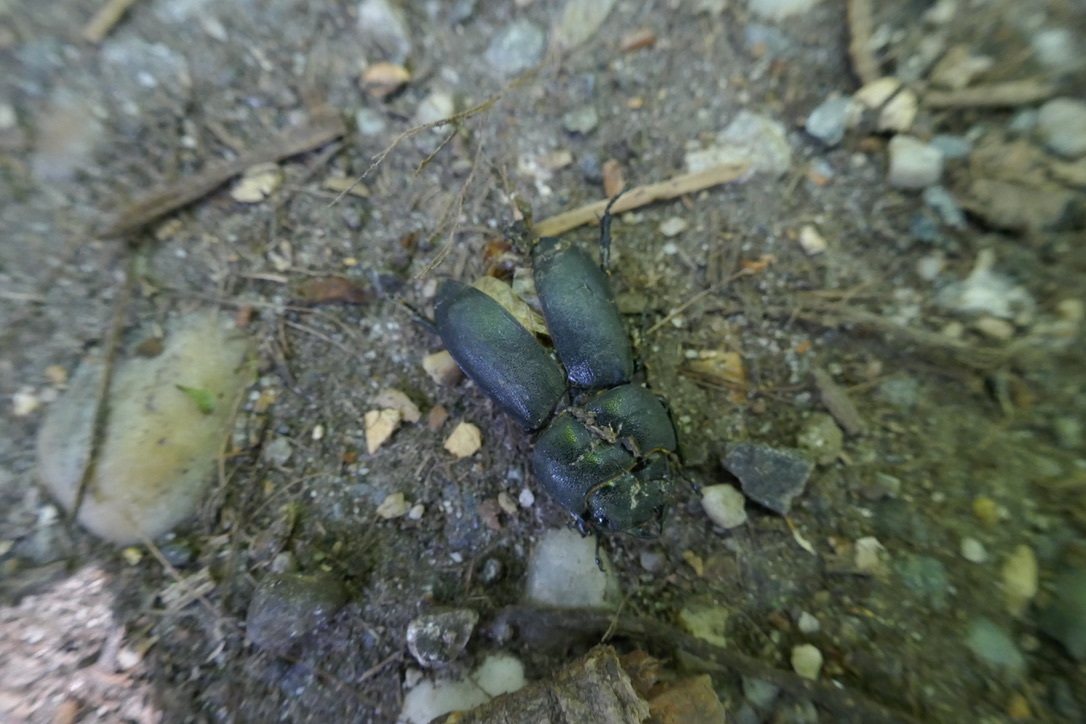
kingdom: Animalia
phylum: Arthropoda
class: Insecta
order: Coleoptera
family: Lucanidae
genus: Dorcus
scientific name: Dorcus parallelipipedus
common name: Lesser stag beetle
